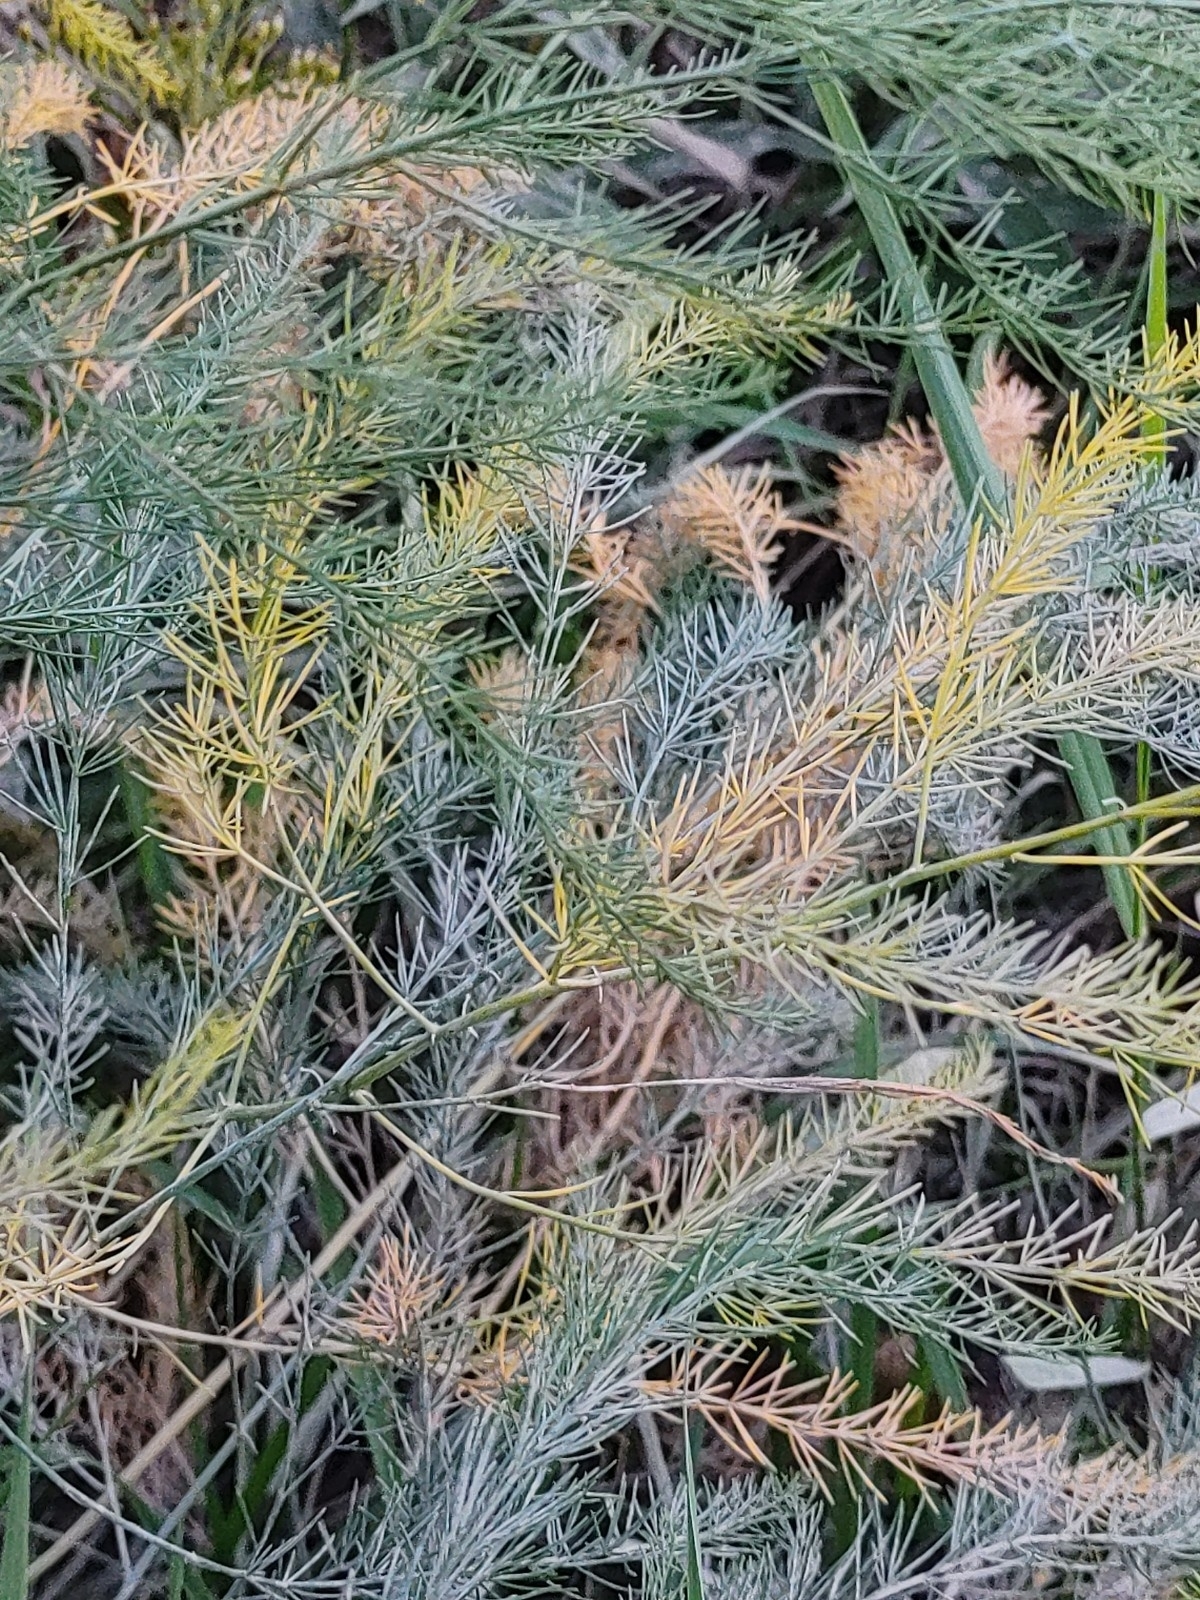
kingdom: Plantae
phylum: Tracheophyta
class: Liliopsida
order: Asparagales
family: Asparagaceae
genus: Asparagus
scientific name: Asparagus officinalis
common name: Garden asparagus
